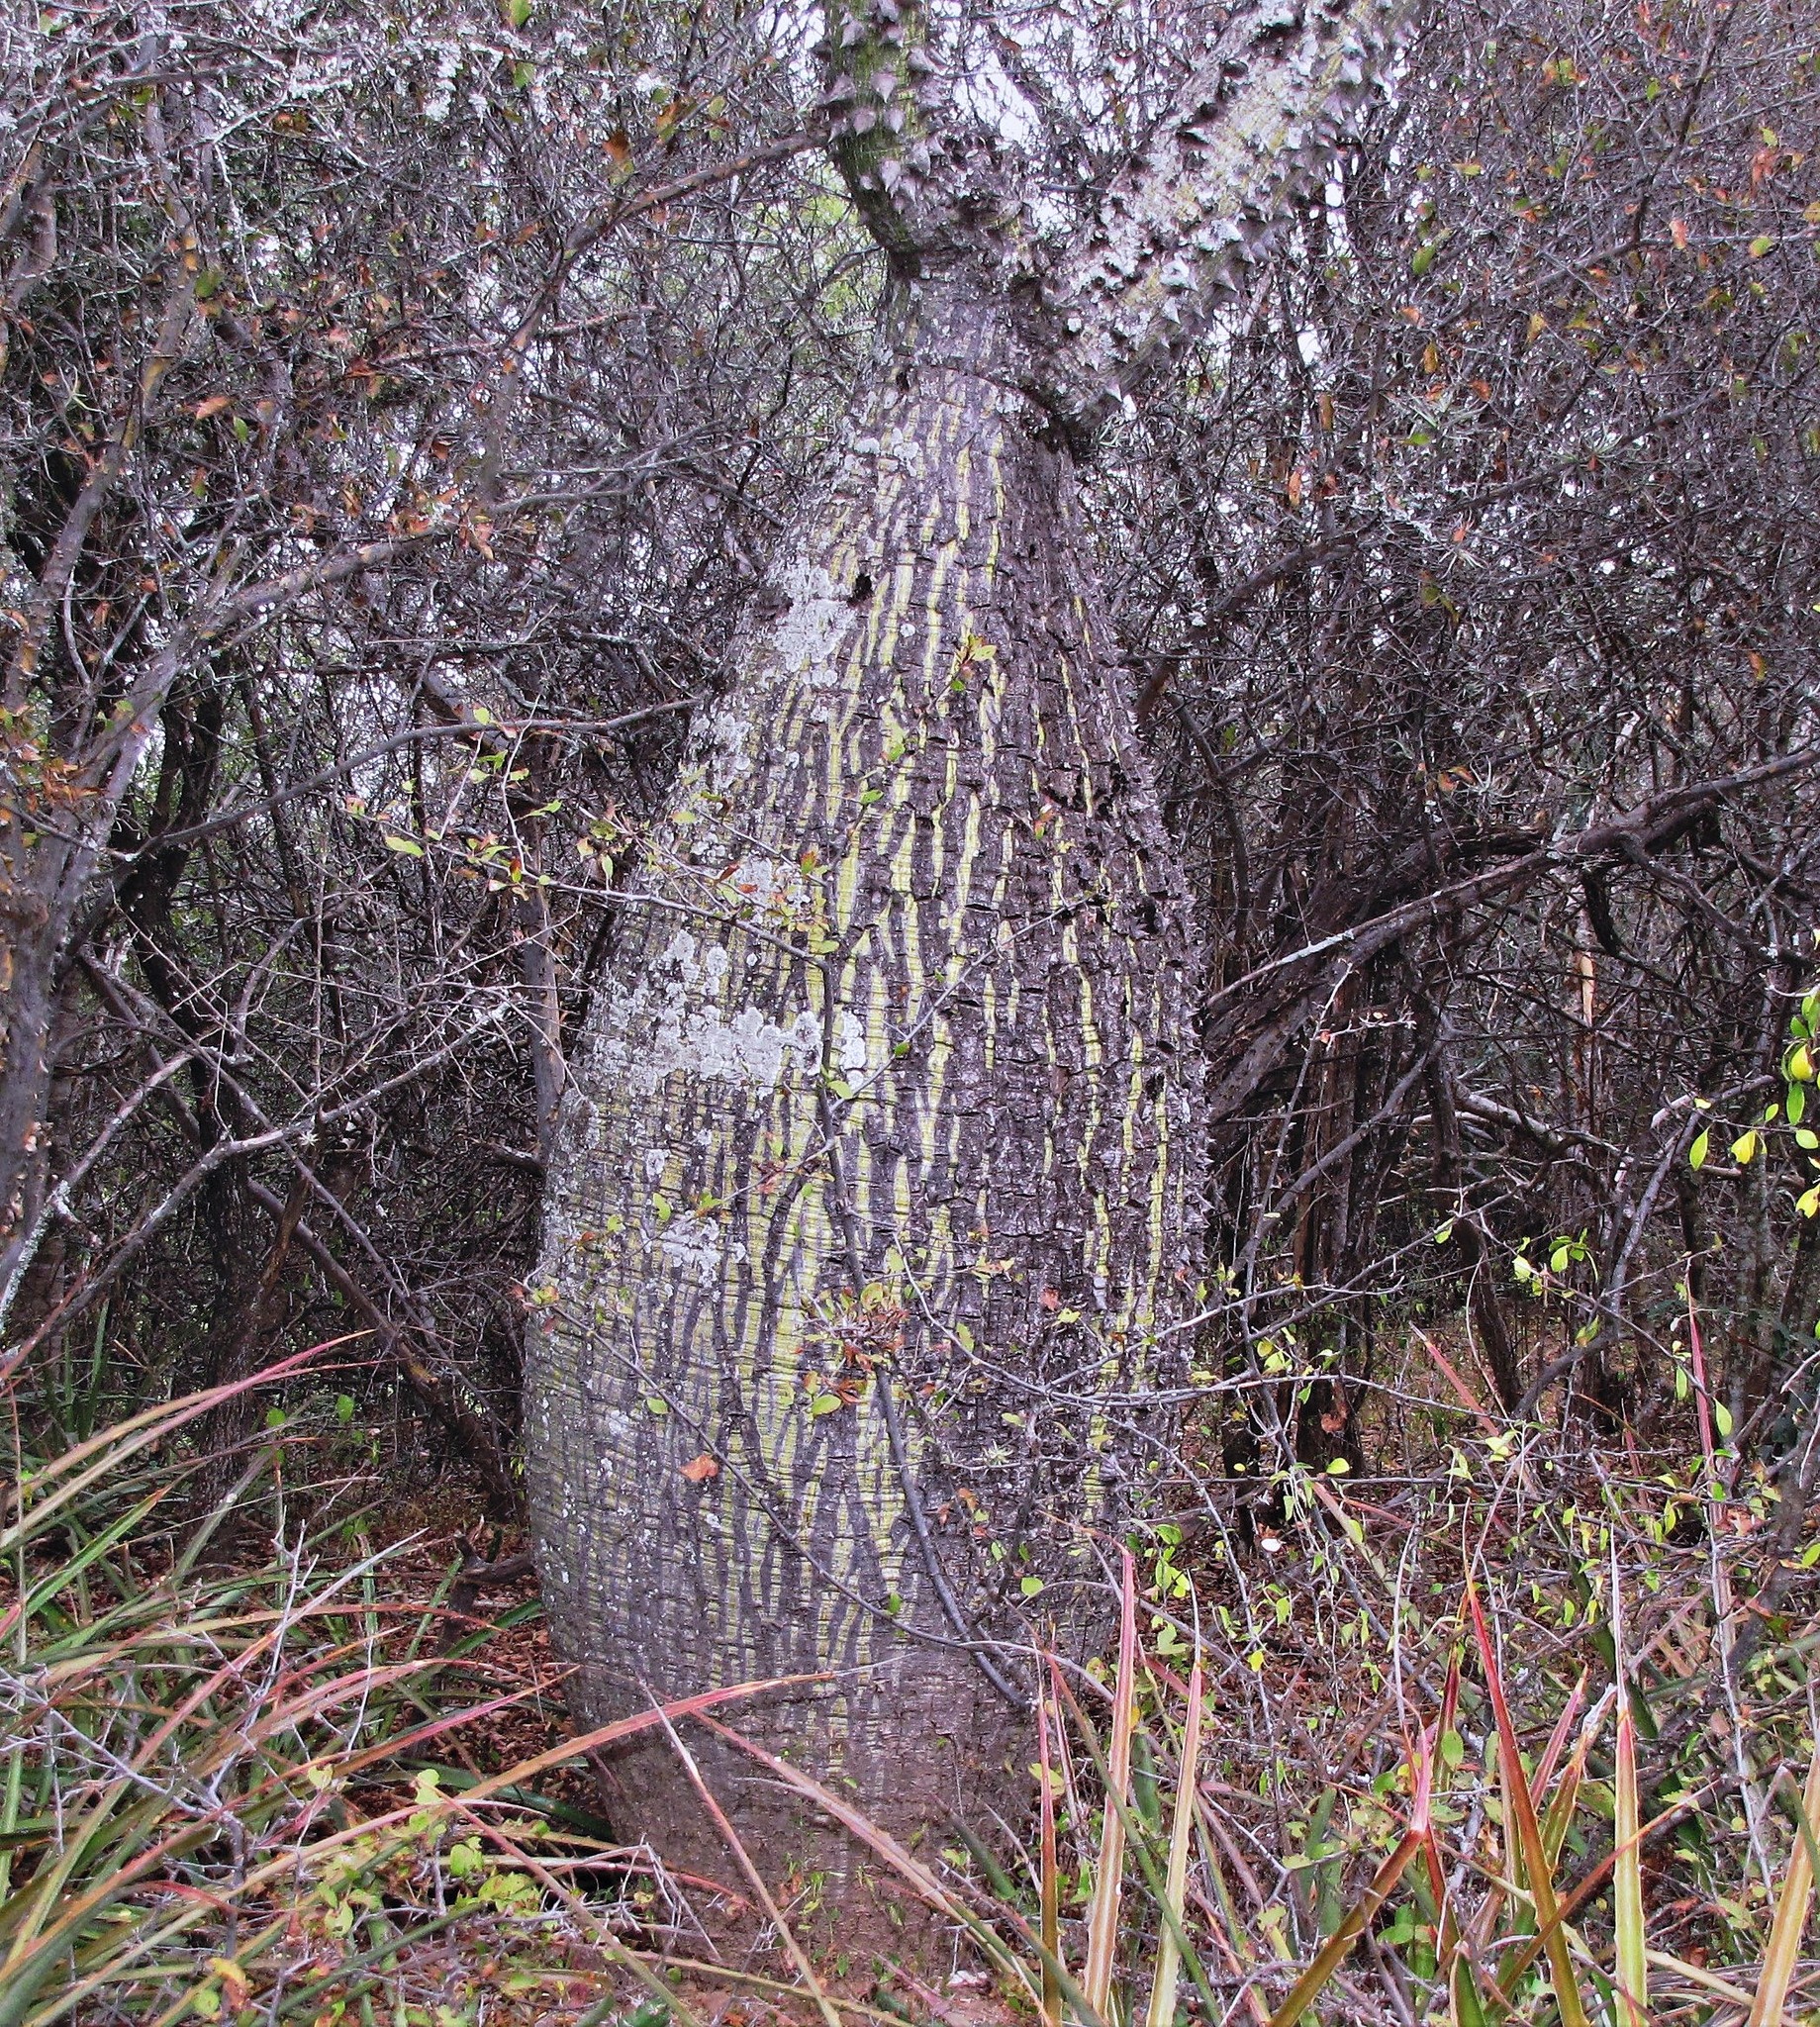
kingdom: Plantae
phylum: Tracheophyta
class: Magnoliopsida
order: Malvales
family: Malvaceae
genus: Ceiba
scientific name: Ceiba chodatii
